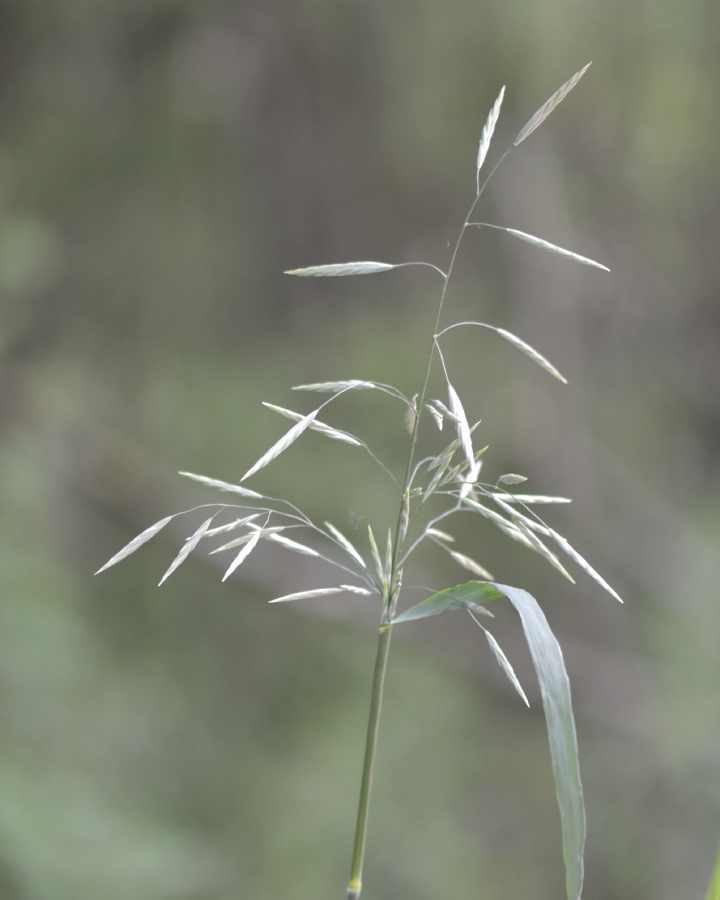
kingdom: Plantae
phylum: Tracheophyta
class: Liliopsida
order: Poales
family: Poaceae
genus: Bromus
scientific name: Bromus inermis
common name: Smooth brome
